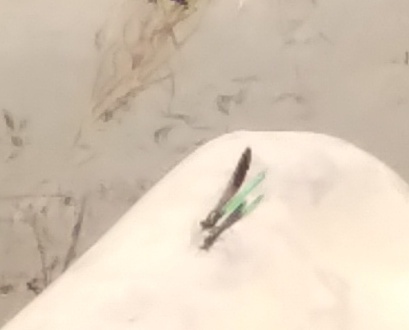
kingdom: Animalia
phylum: Arthropoda
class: Insecta
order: Odonata
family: Calopterygidae
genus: Calopteryx
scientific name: Calopteryx aequabilis
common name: River jewelwing
